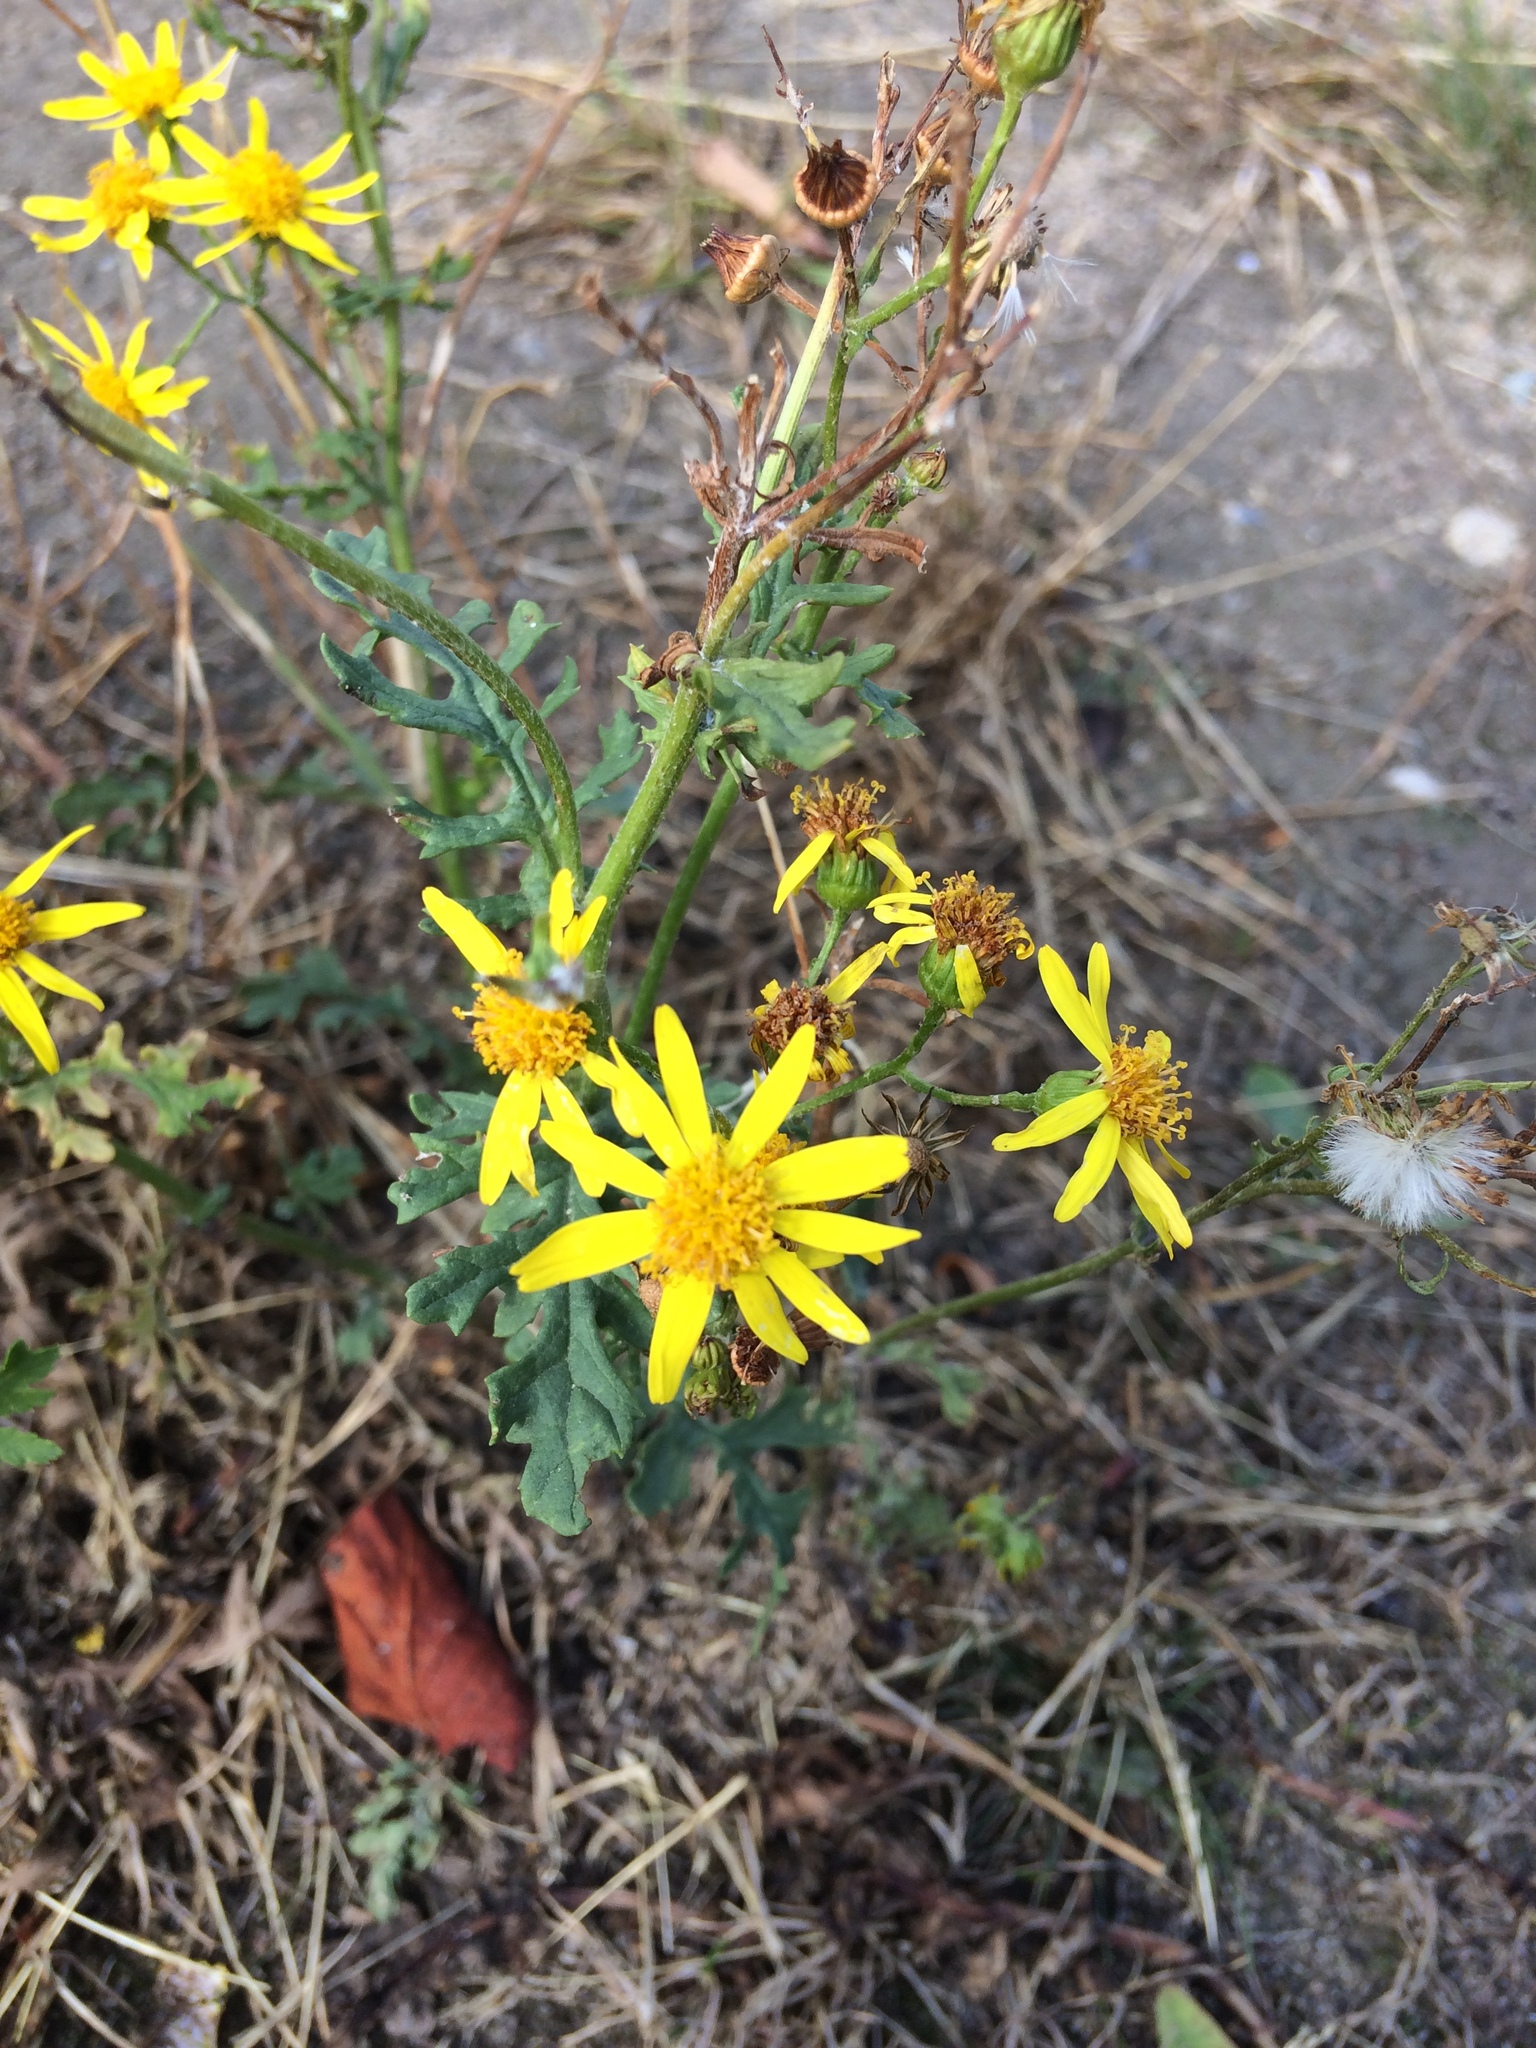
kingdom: Plantae
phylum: Tracheophyta
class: Magnoliopsida
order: Asterales
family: Asteraceae
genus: Jacobaea
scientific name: Jacobaea vulgaris
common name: Stinking willie
